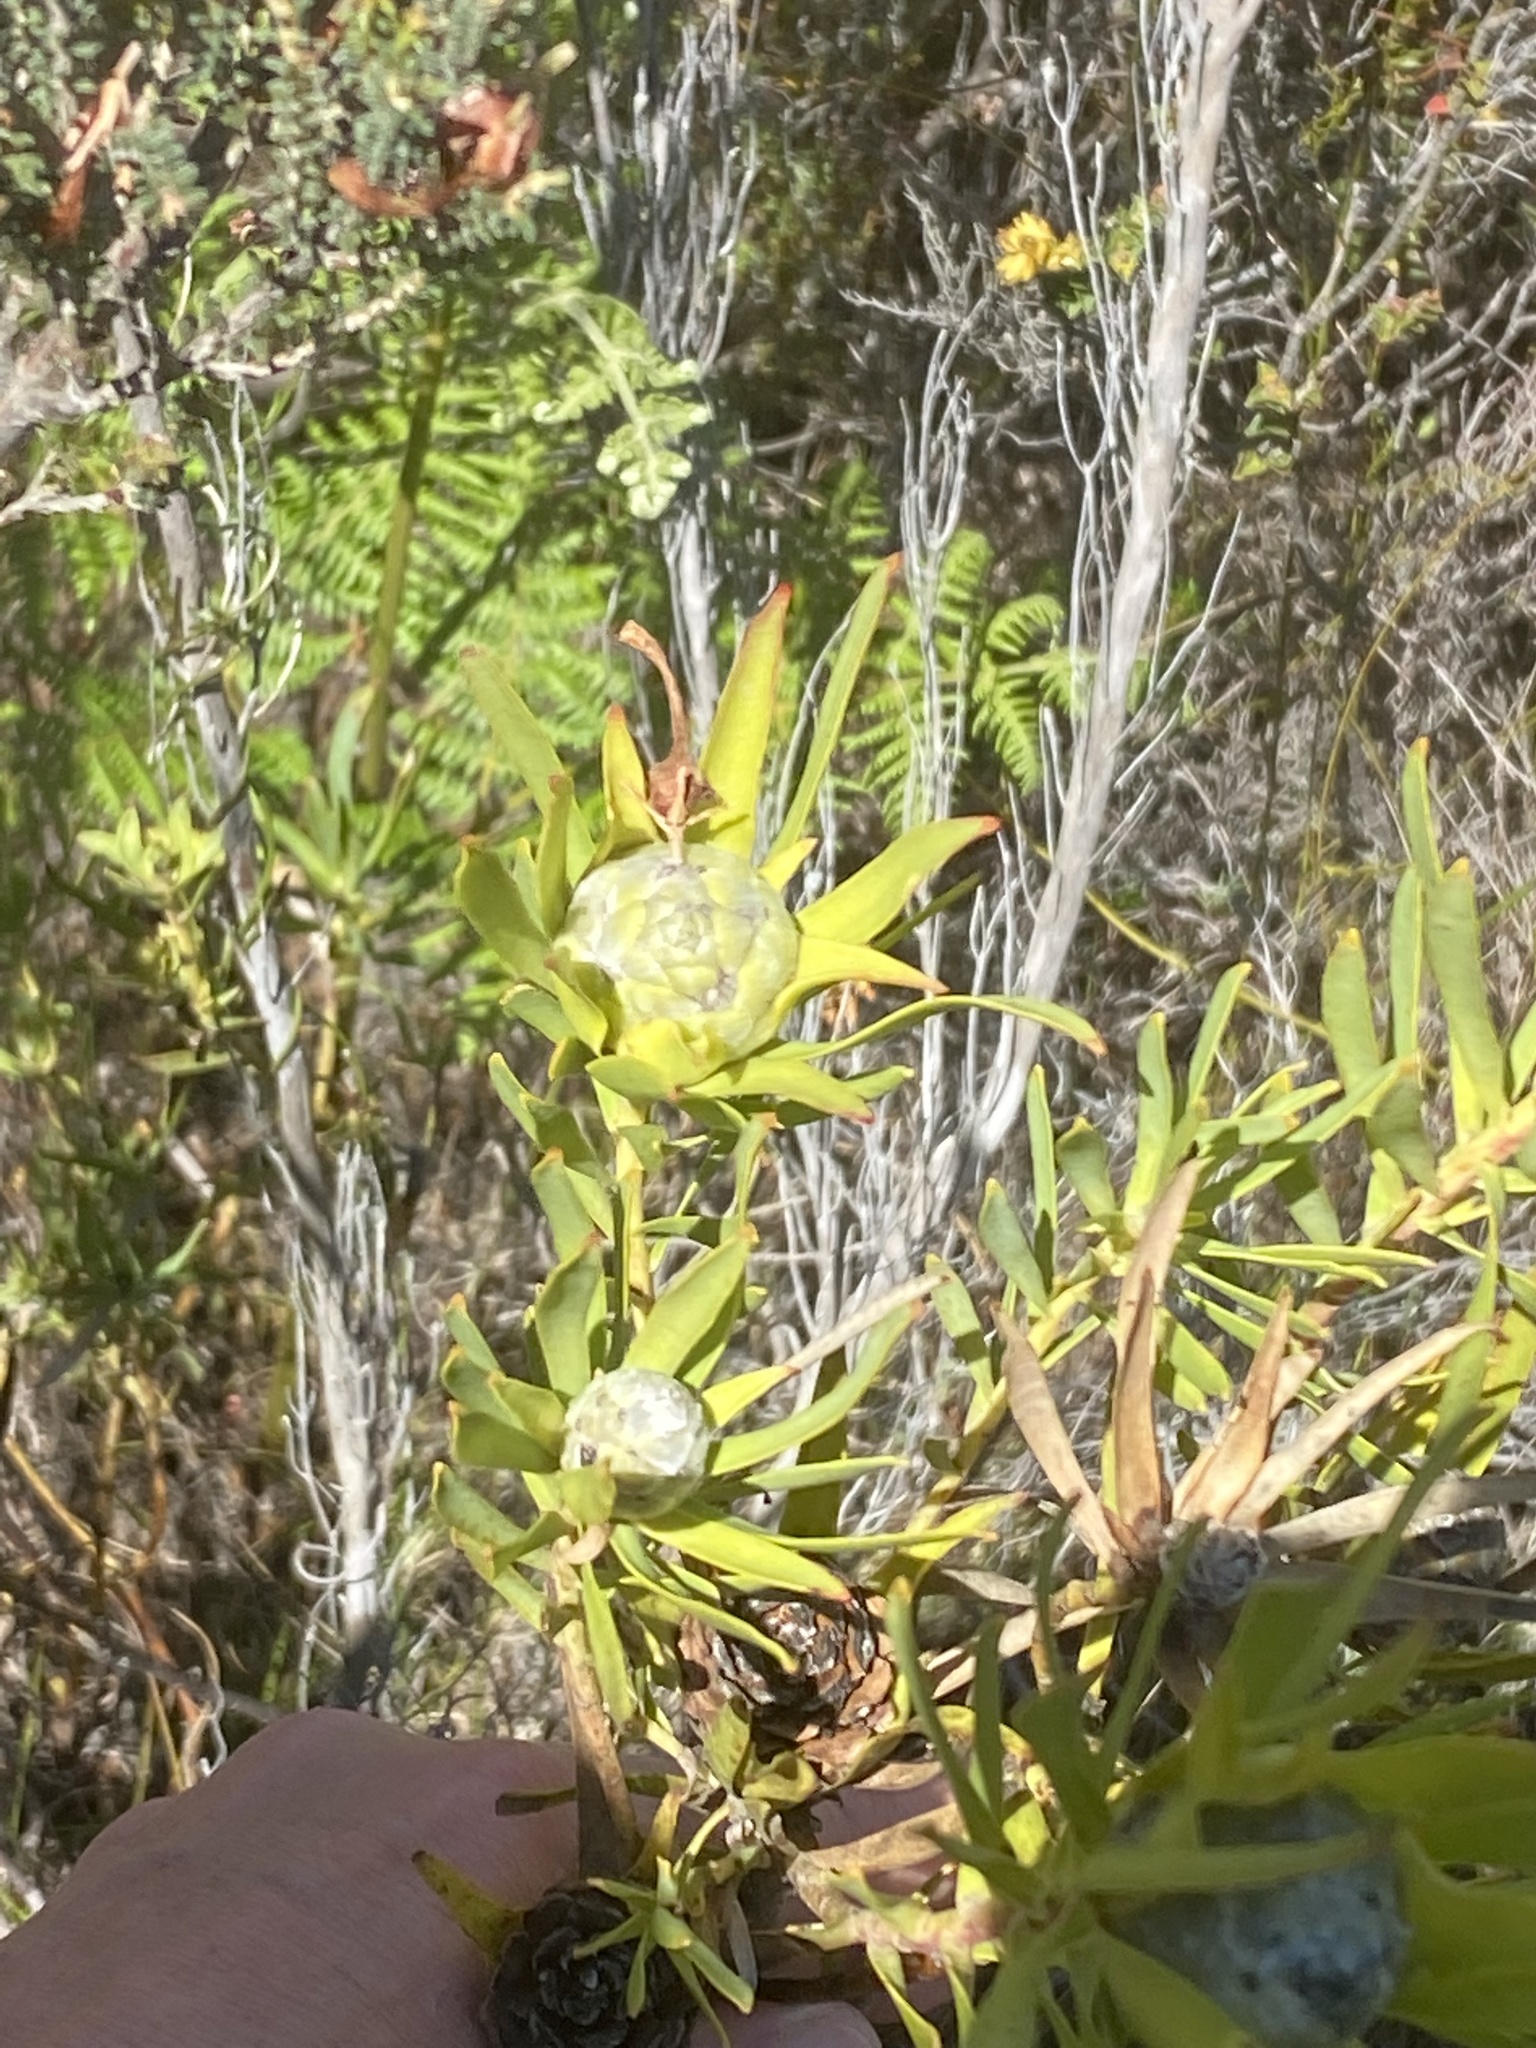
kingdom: Plantae
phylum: Tracheophyta
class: Magnoliopsida
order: Proteales
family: Proteaceae
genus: Leucadendron
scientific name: Leucadendron salignum
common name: Common sunshine conebush
